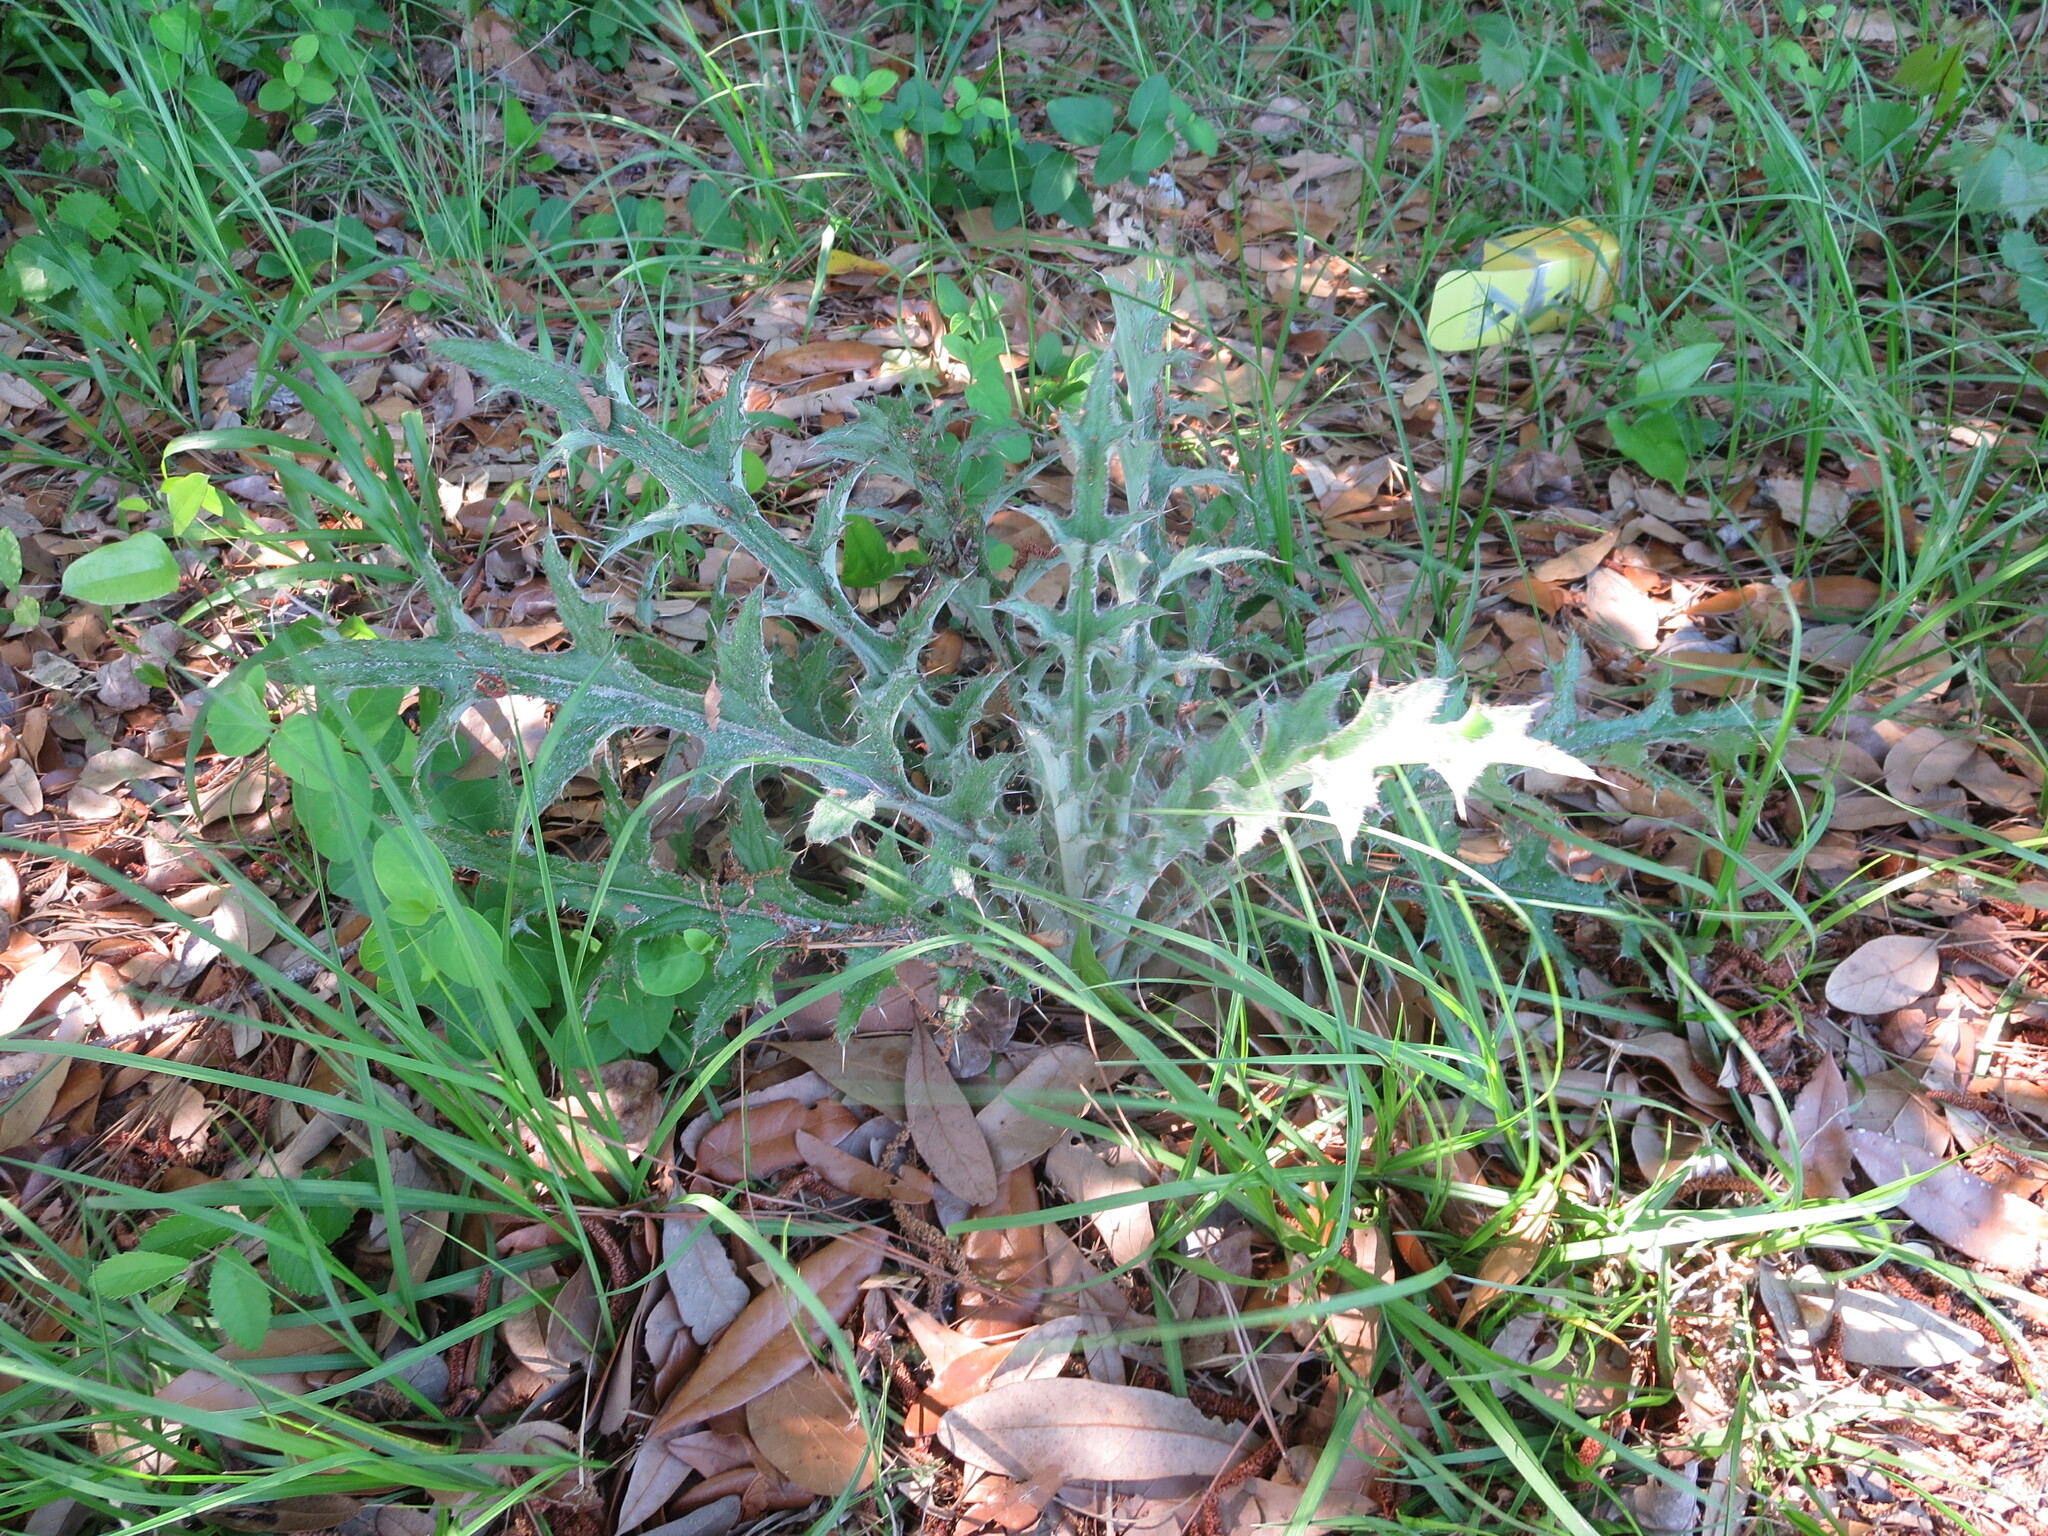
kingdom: Plantae
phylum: Tracheophyta
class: Magnoliopsida
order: Asterales
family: Asteraceae
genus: Cirsium
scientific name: Cirsium horridulum
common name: Bristly thistle
